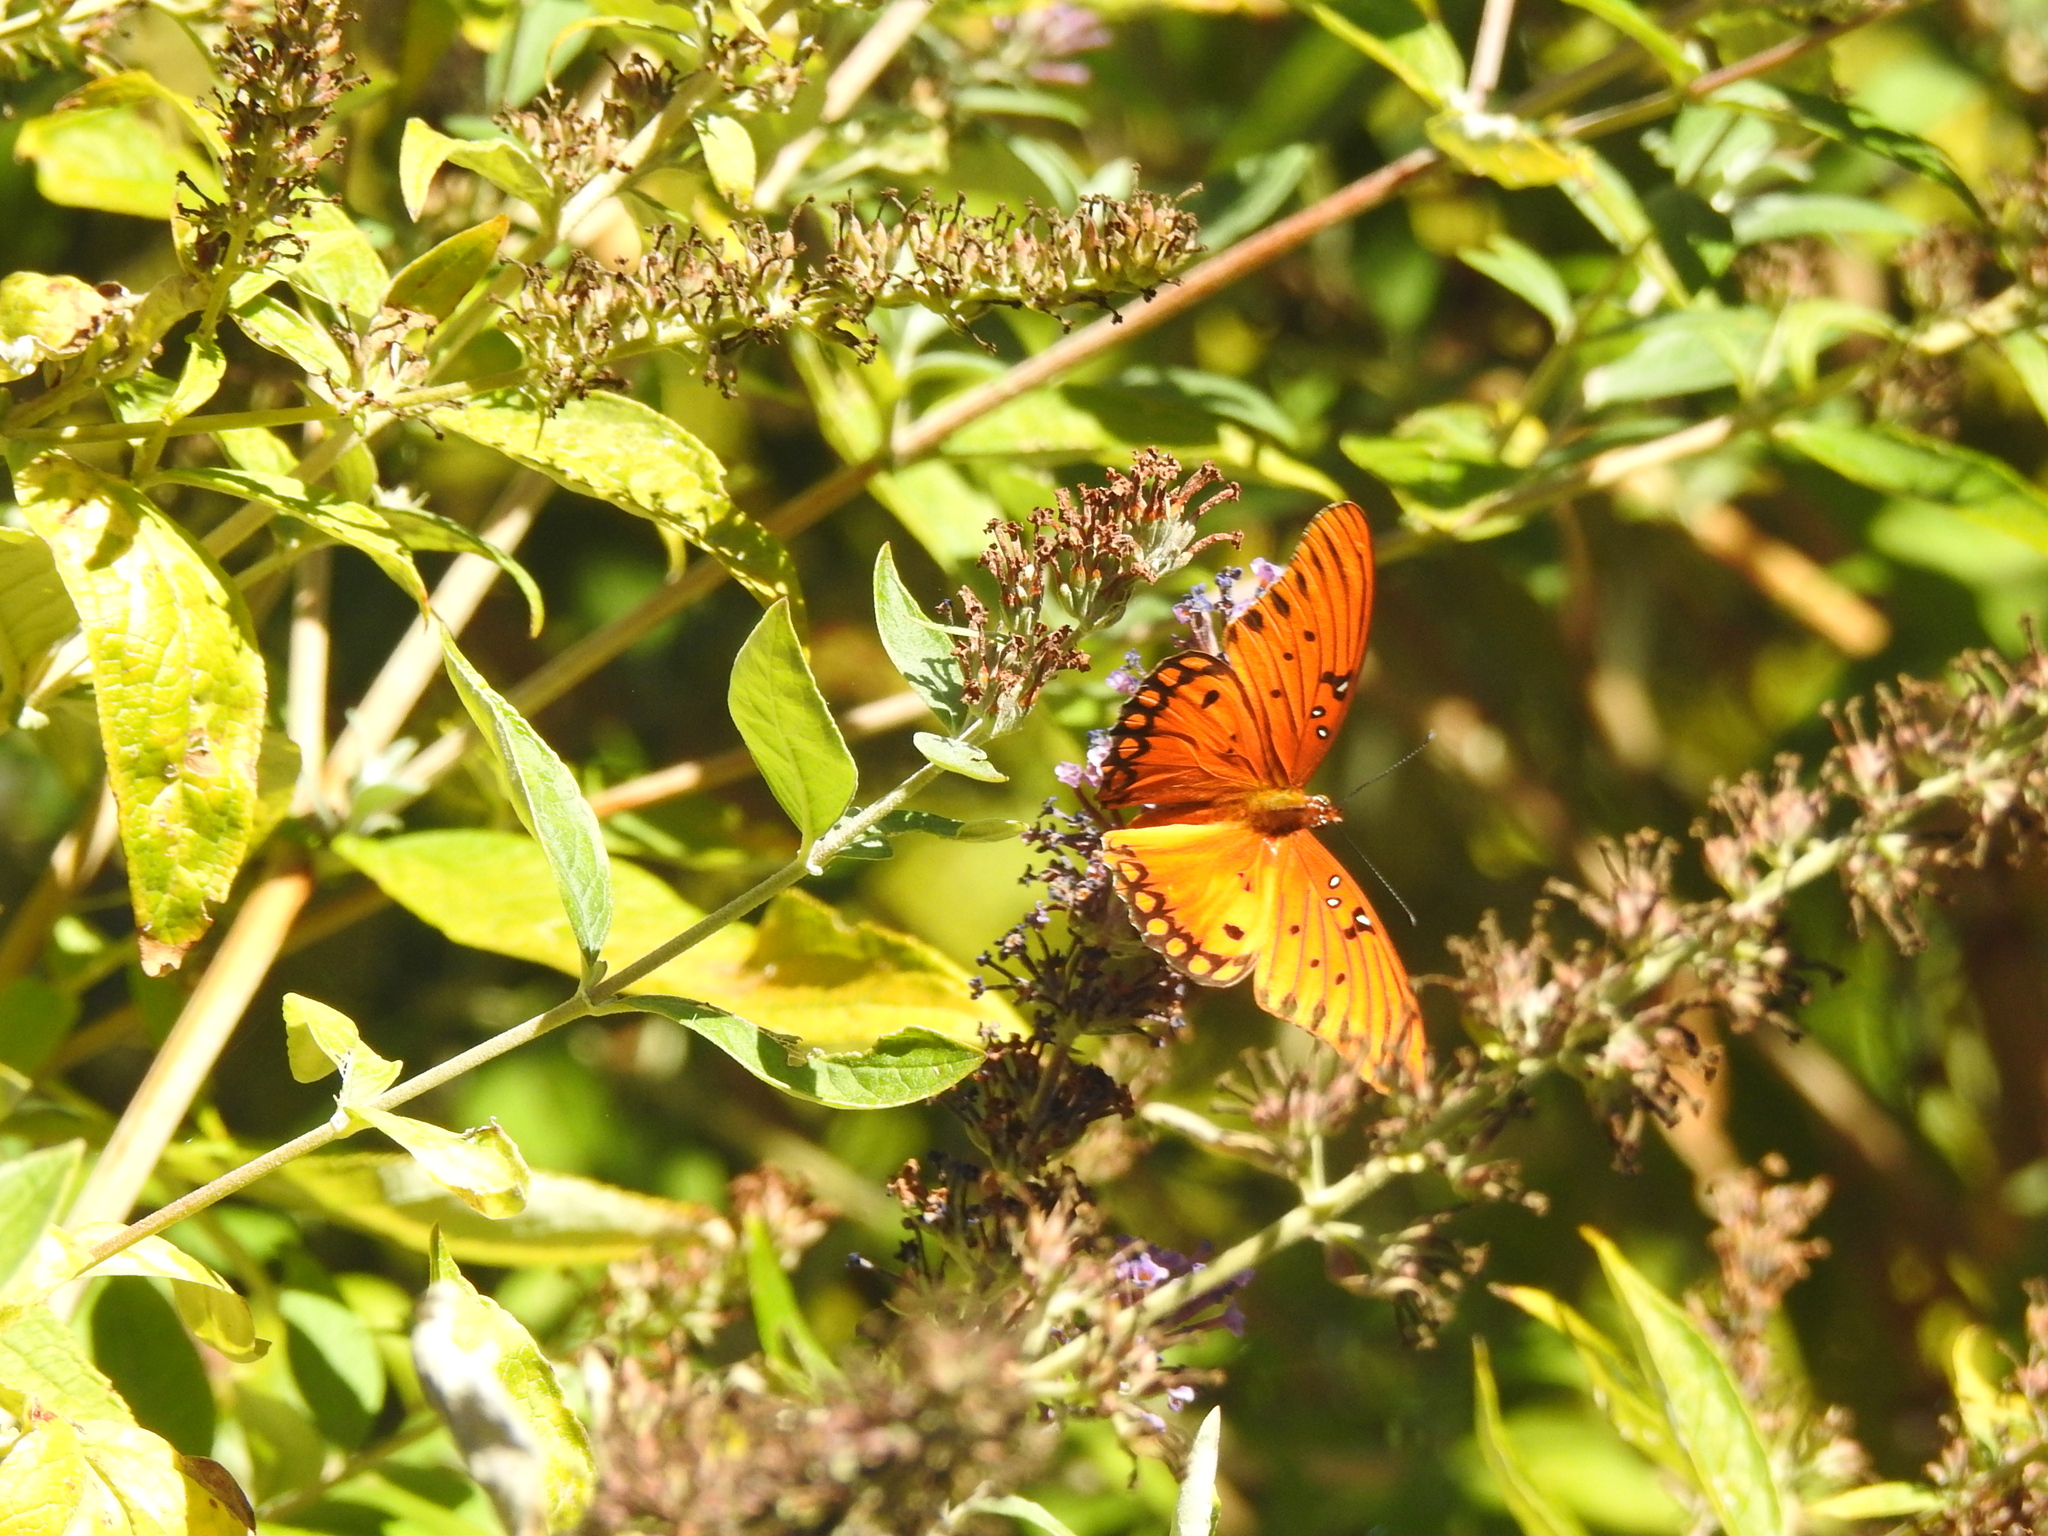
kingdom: Animalia
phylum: Arthropoda
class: Insecta
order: Lepidoptera
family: Nymphalidae
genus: Dione
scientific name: Dione vanillae
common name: Gulf fritillary
